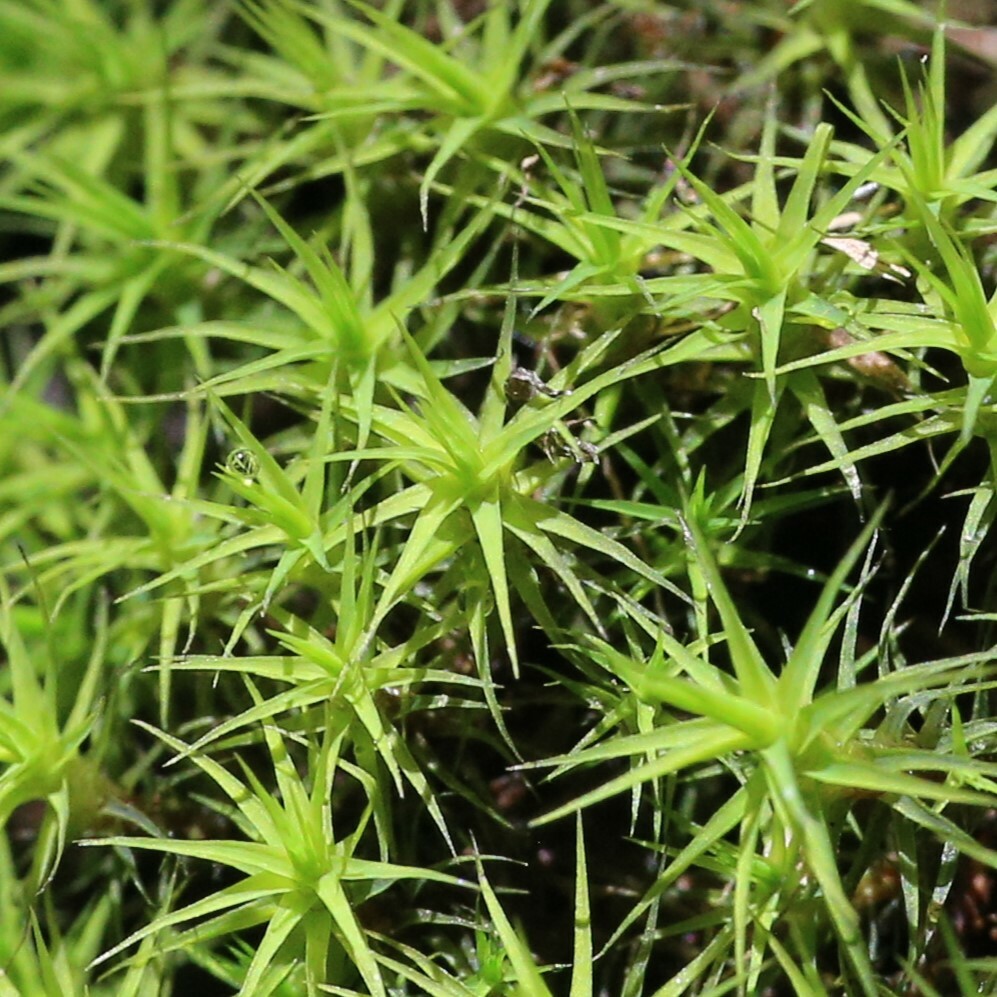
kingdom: Plantae
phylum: Bryophyta
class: Bryopsida
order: Bartramiales
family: Bartramiaceae
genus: Bartramia
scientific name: Bartramia robusta
